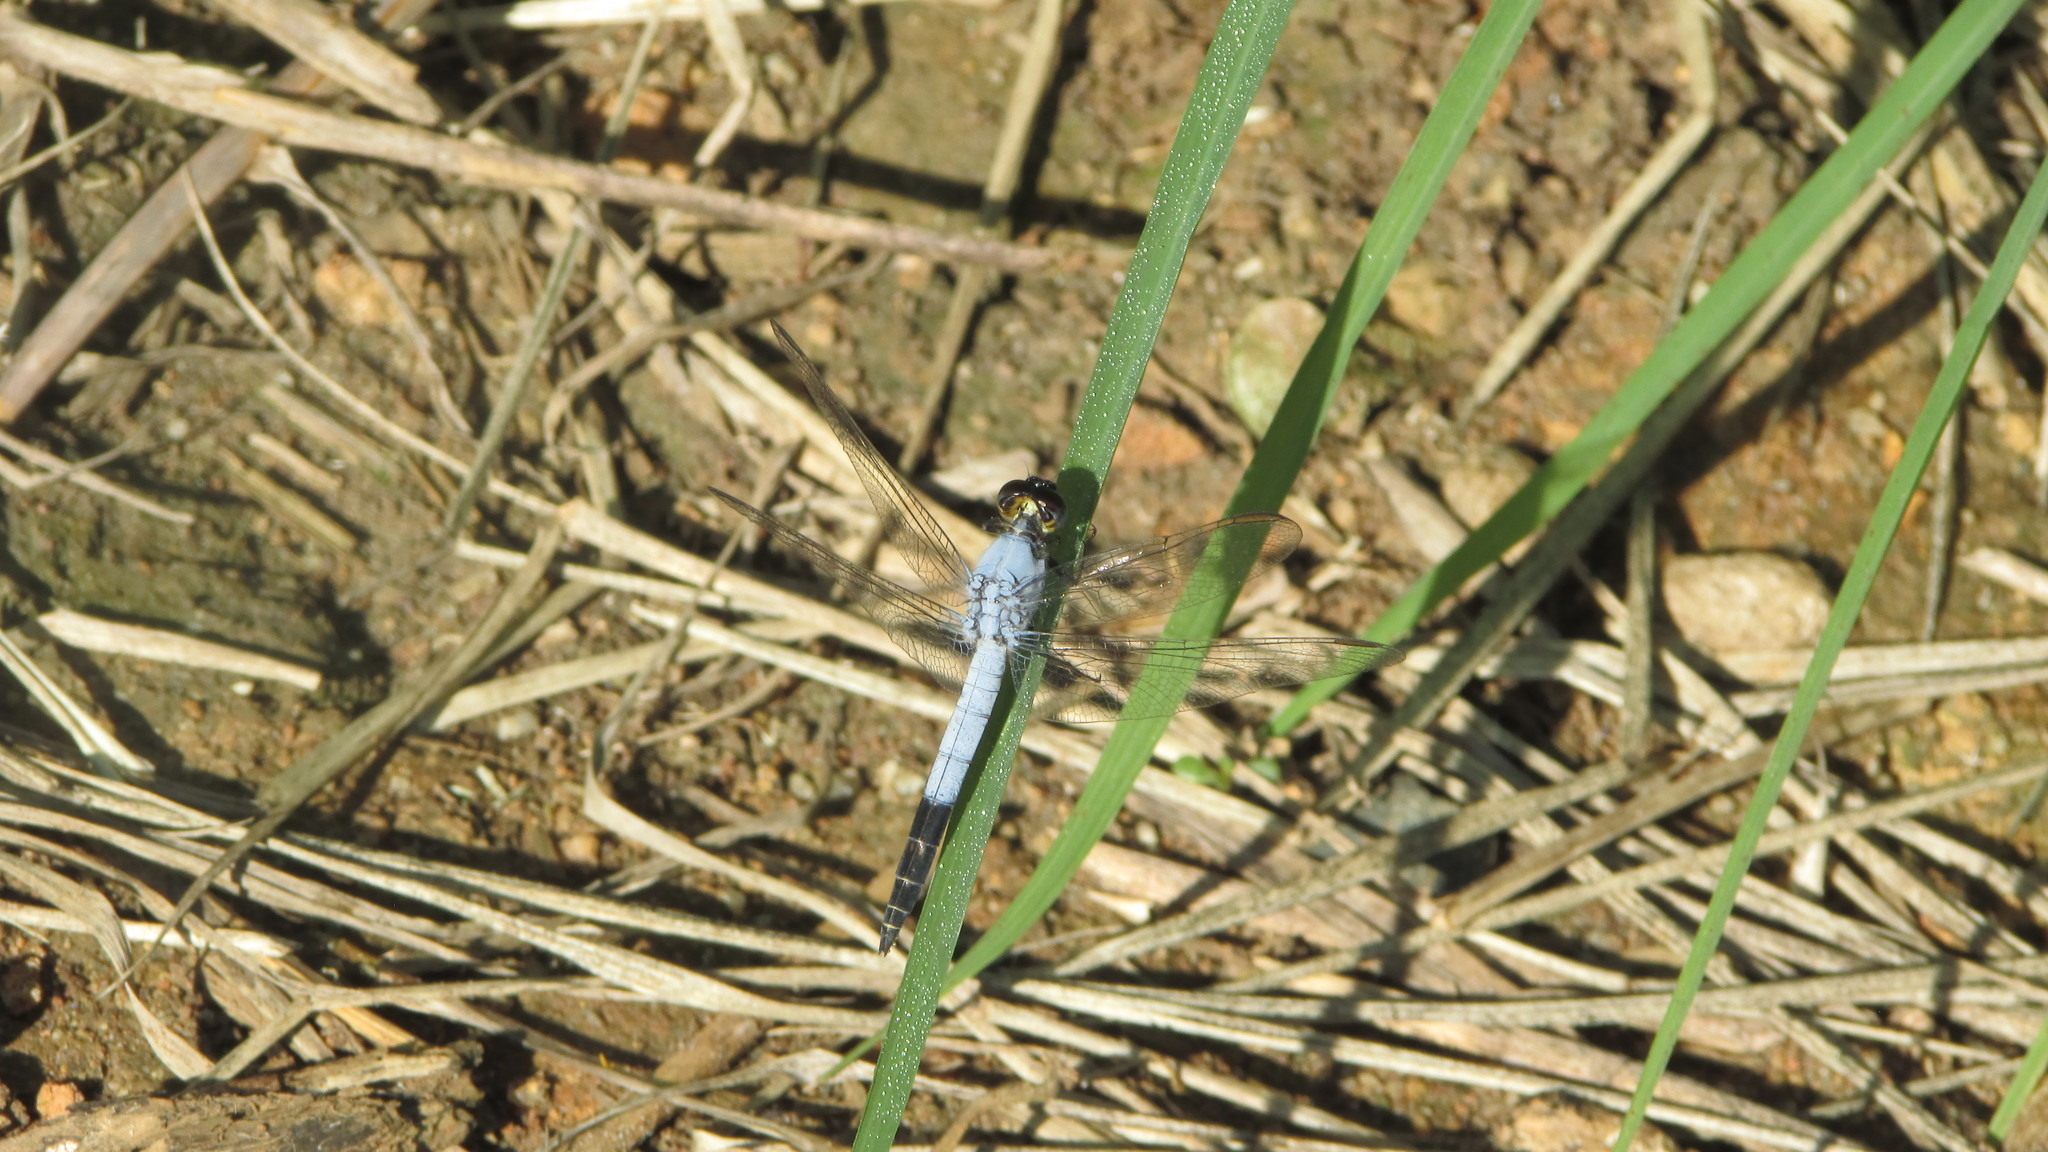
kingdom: Animalia
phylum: Arthropoda
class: Insecta
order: Odonata
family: Libellulidae
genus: Nesciothemis
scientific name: Nesciothemis farinosa
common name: Eastern blacktail
